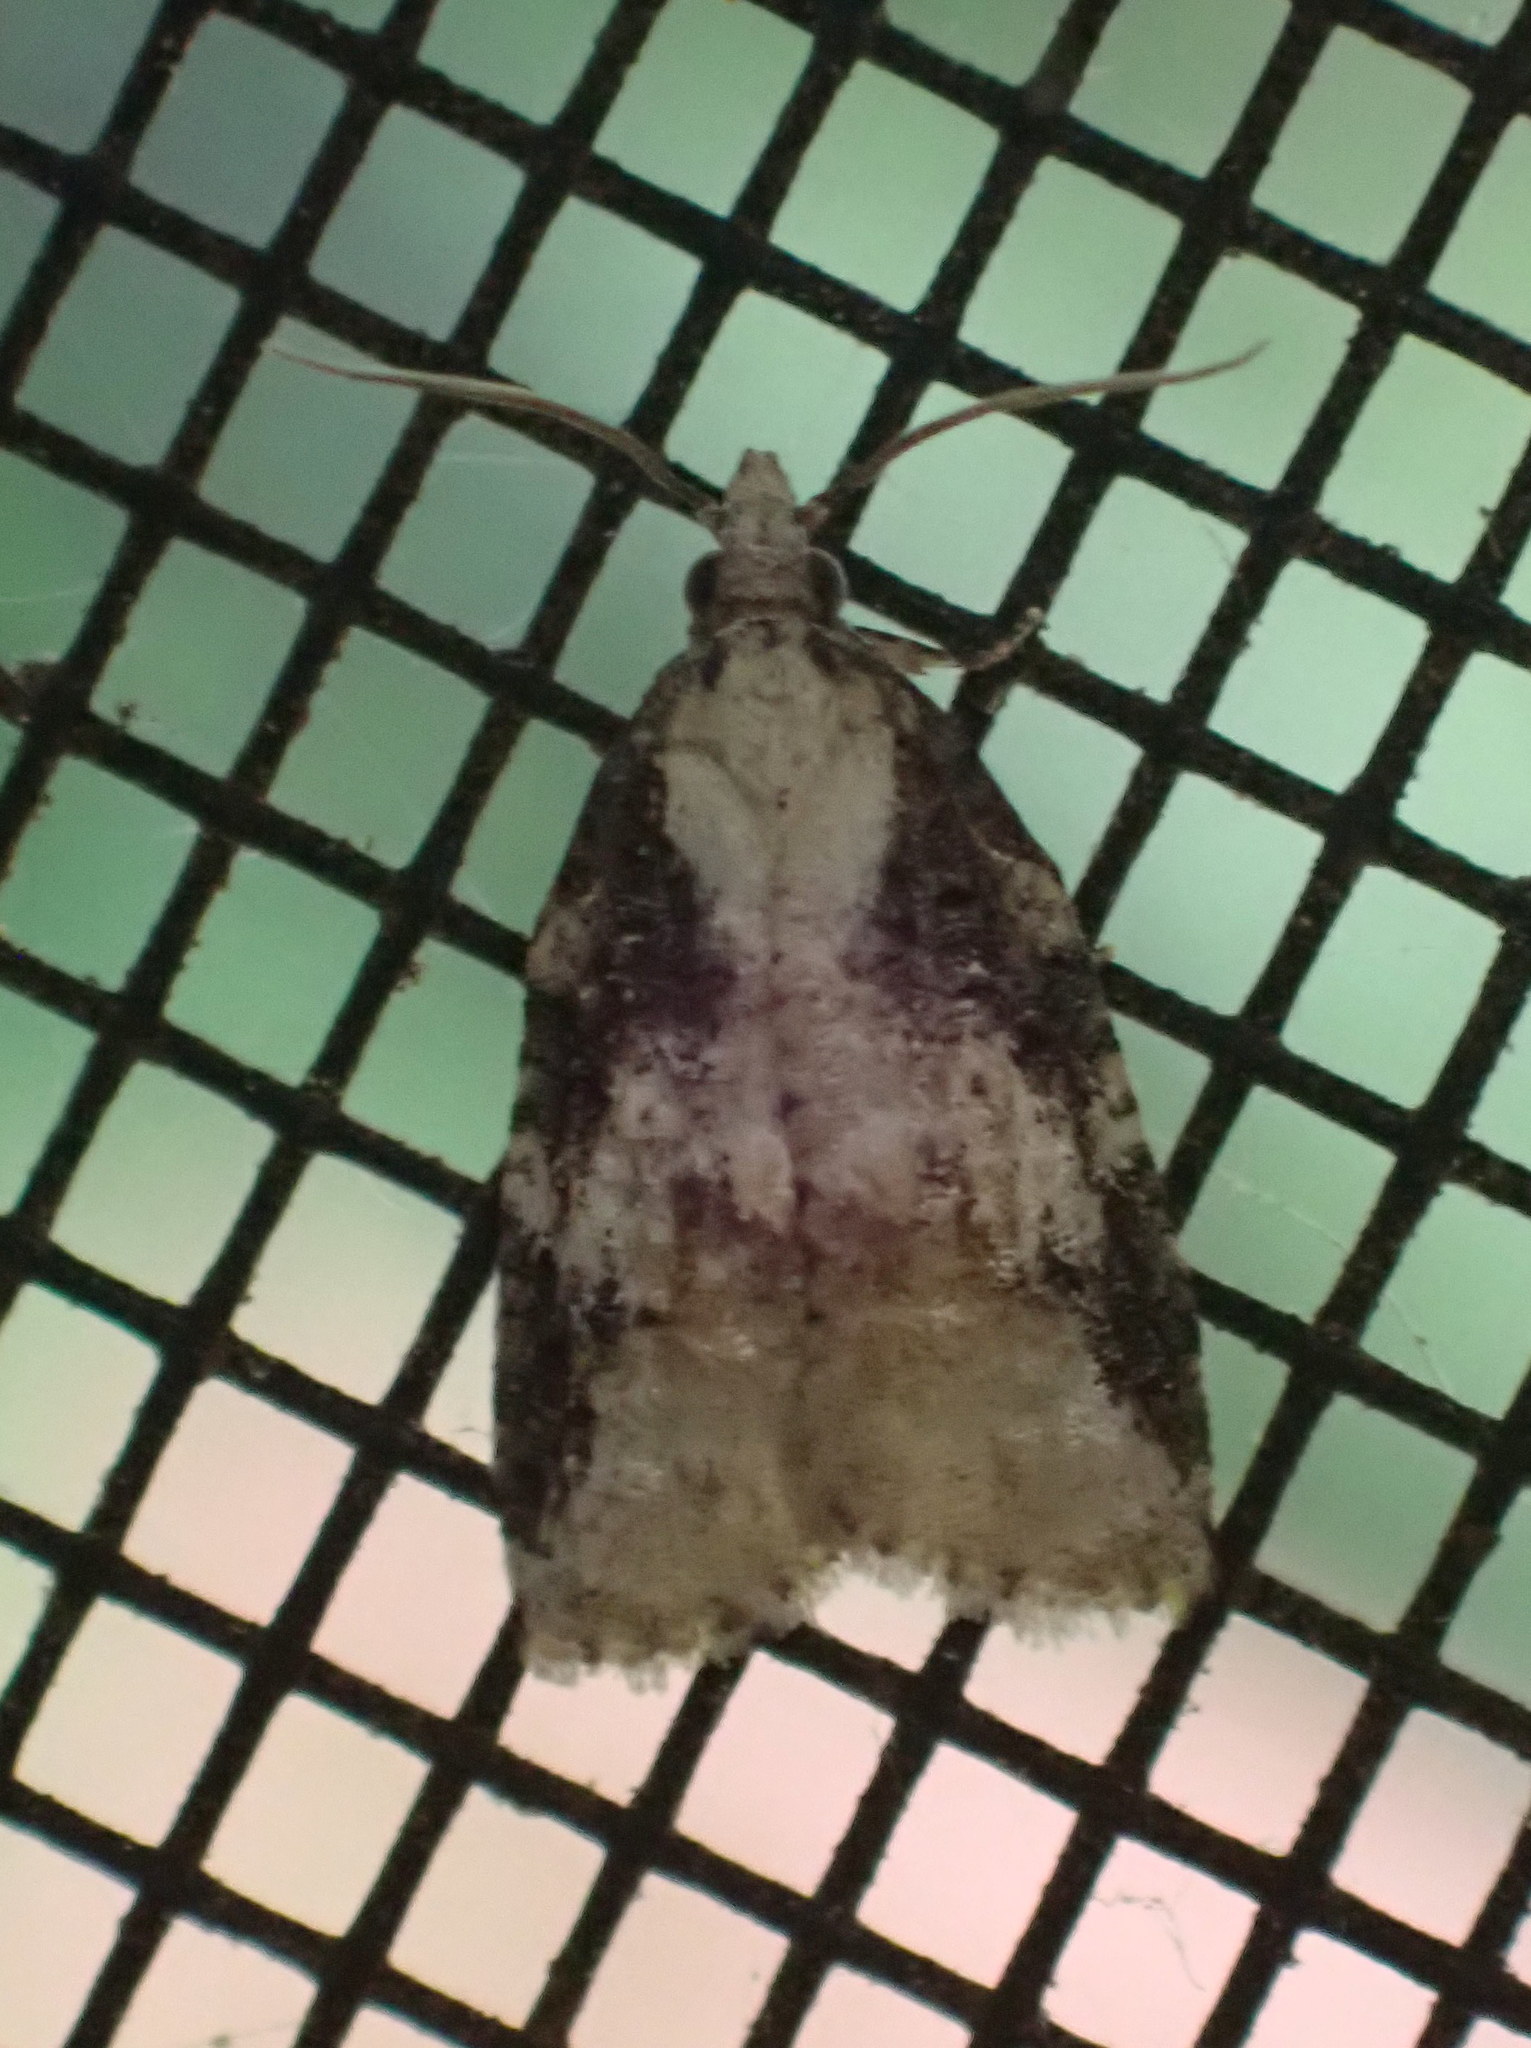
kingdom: Animalia
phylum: Arthropoda
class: Insecta
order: Lepidoptera
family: Tortricidae
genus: Platynota
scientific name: Platynota exasperatana
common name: Exasperating platynota moth
